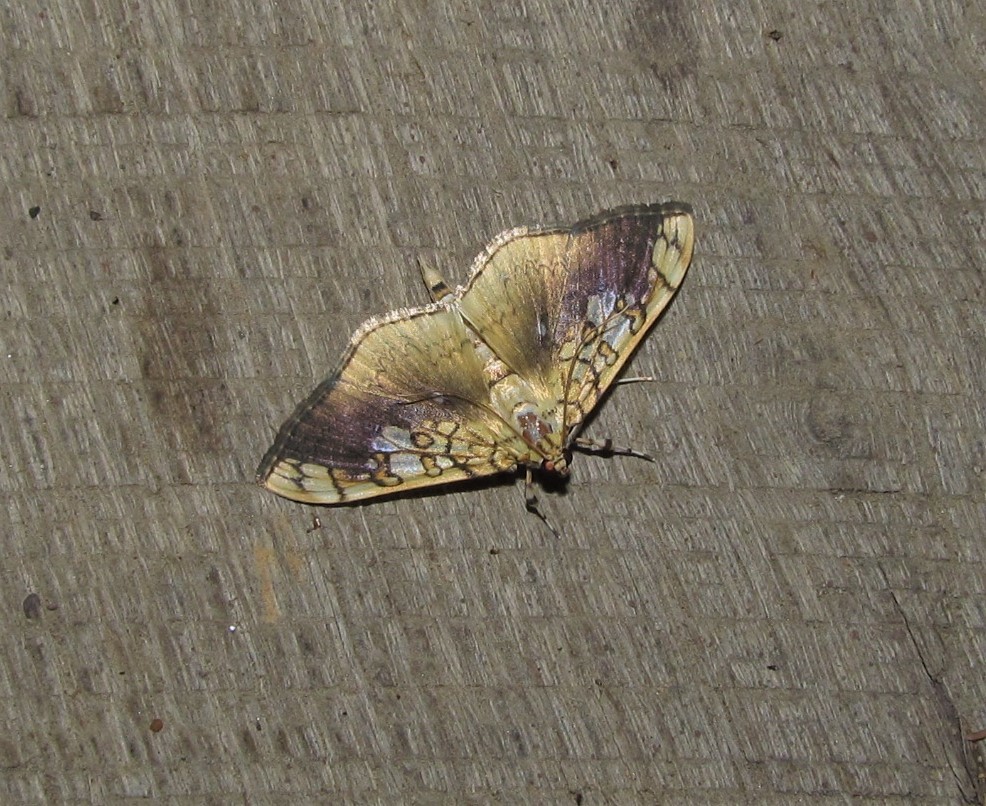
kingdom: Animalia
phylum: Arthropoda
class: Insecta
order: Lepidoptera
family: Crambidae
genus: Pantographa
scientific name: Pantographa limata
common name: Basswood leafroller moth
